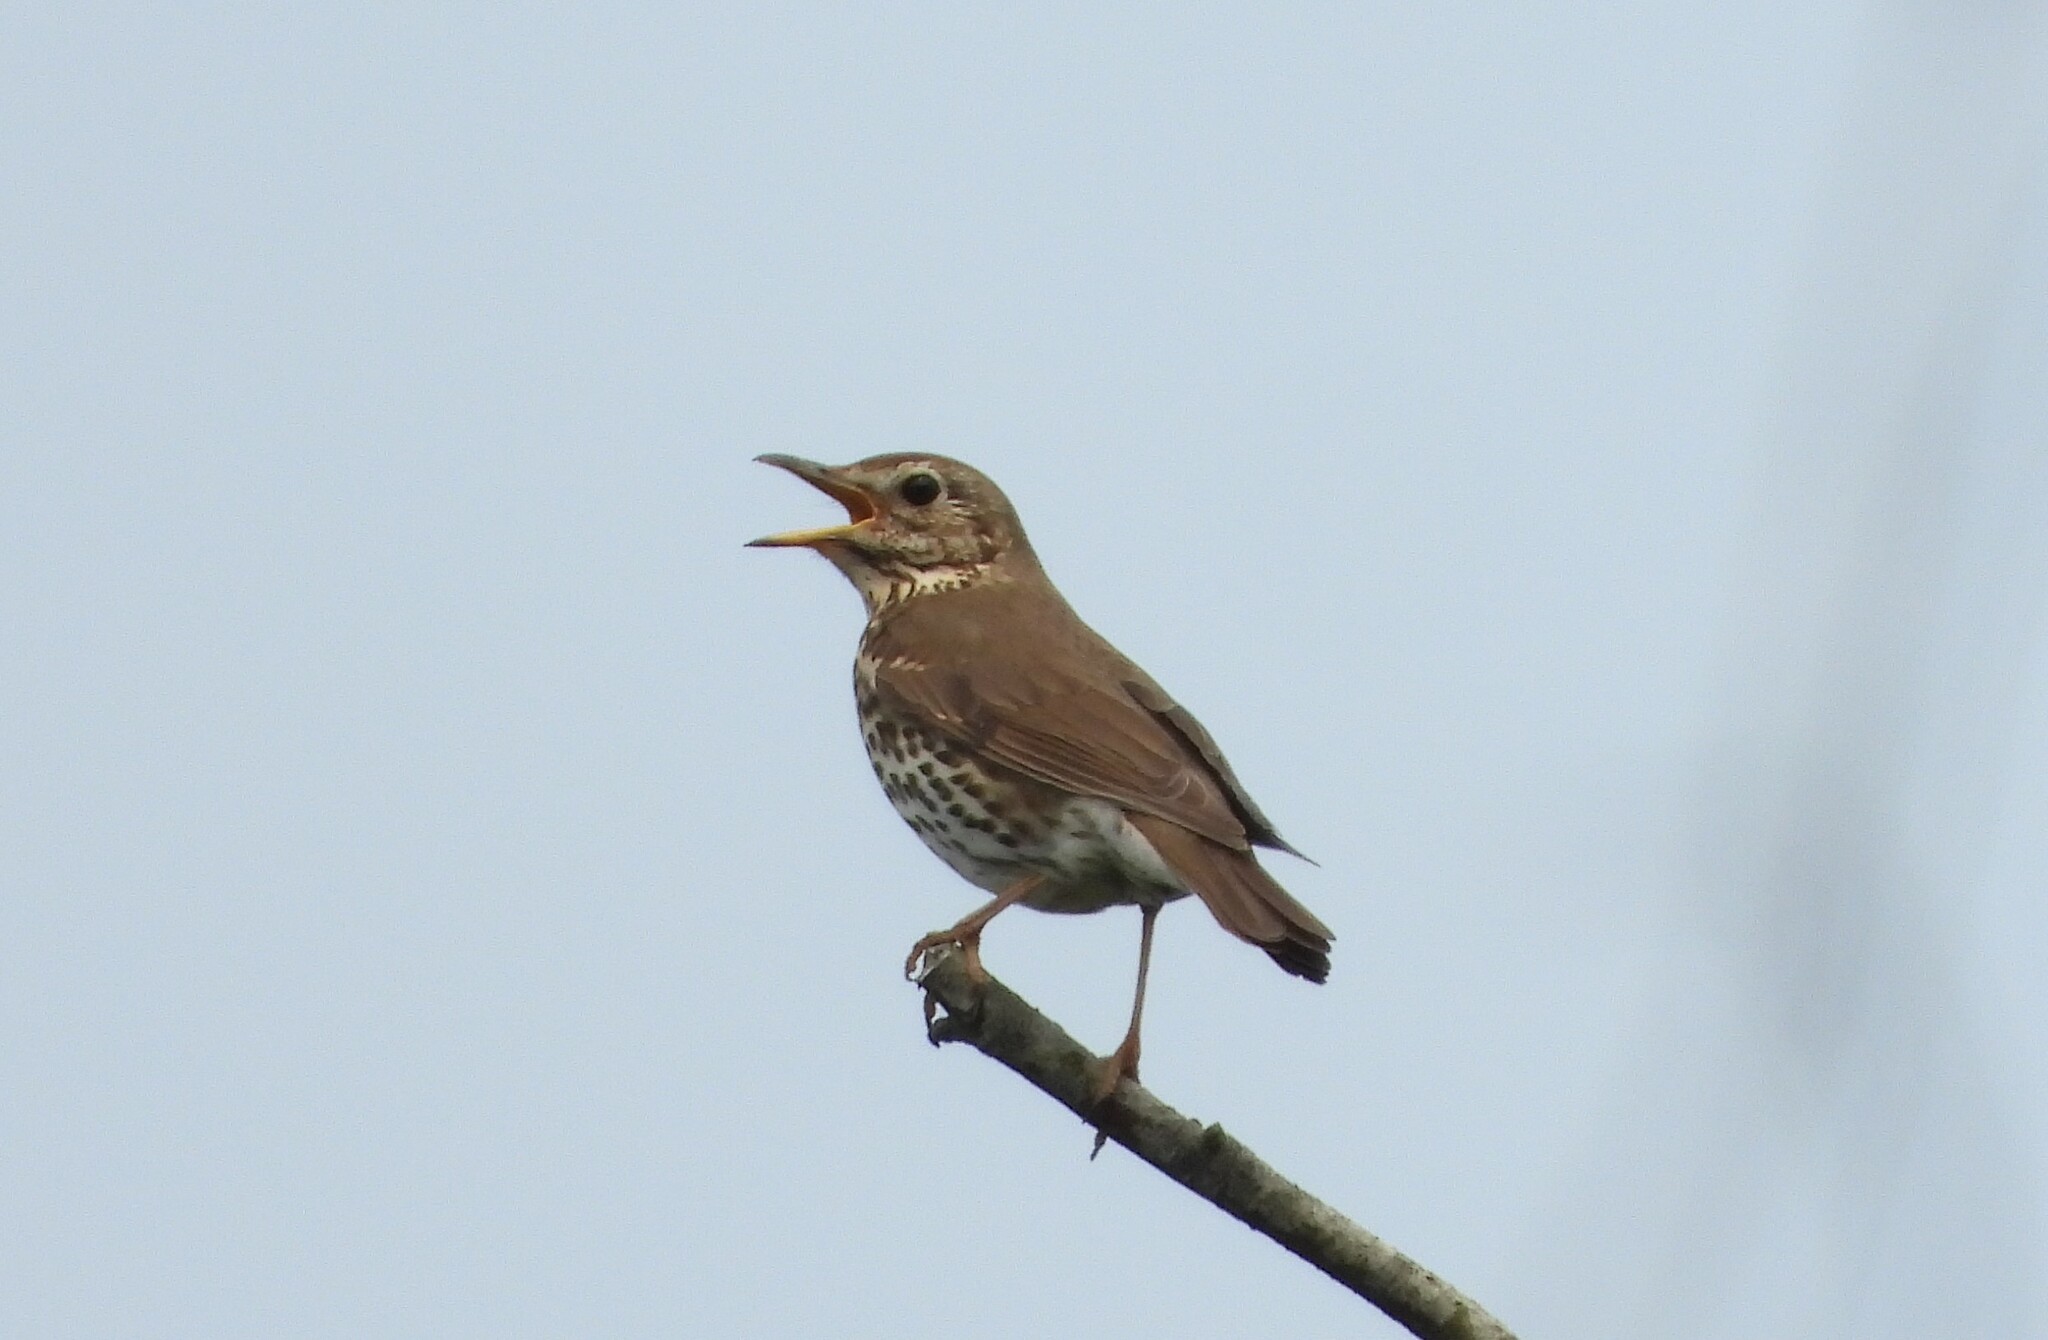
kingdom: Animalia
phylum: Chordata
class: Aves
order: Passeriformes
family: Turdidae
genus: Turdus
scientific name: Turdus philomelos
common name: Song thrush
